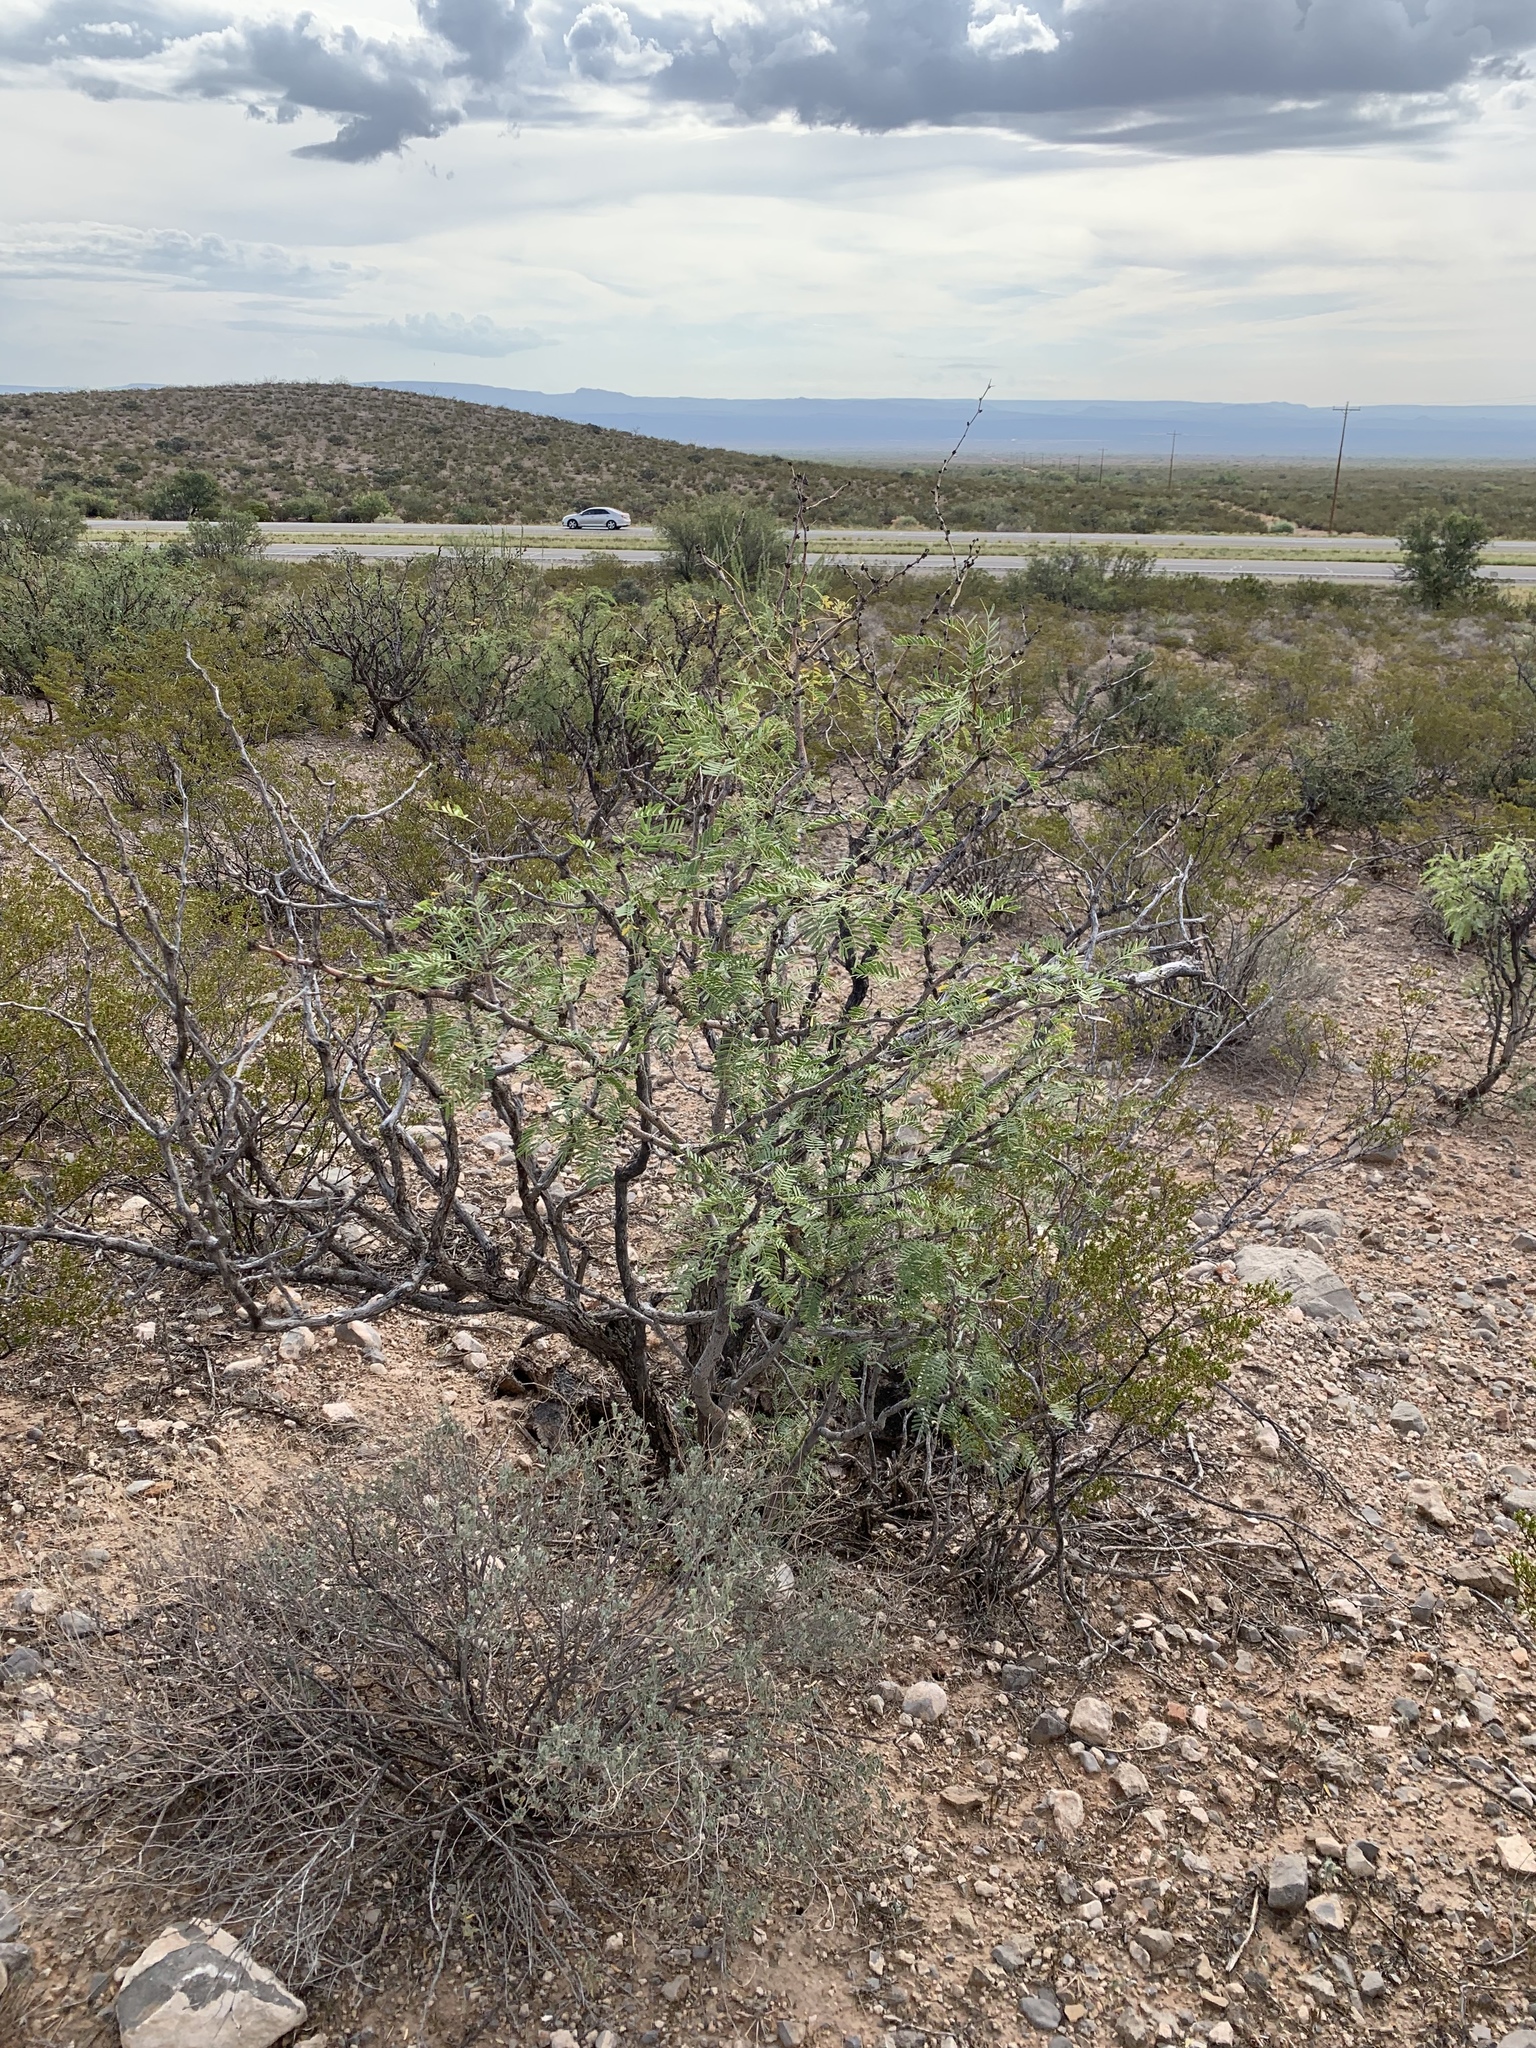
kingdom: Plantae
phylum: Tracheophyta
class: Magnoliopsida
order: Fabales
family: Fabaceae
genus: Prosopis
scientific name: Prosopis glandulosa
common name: Honey mesquite
